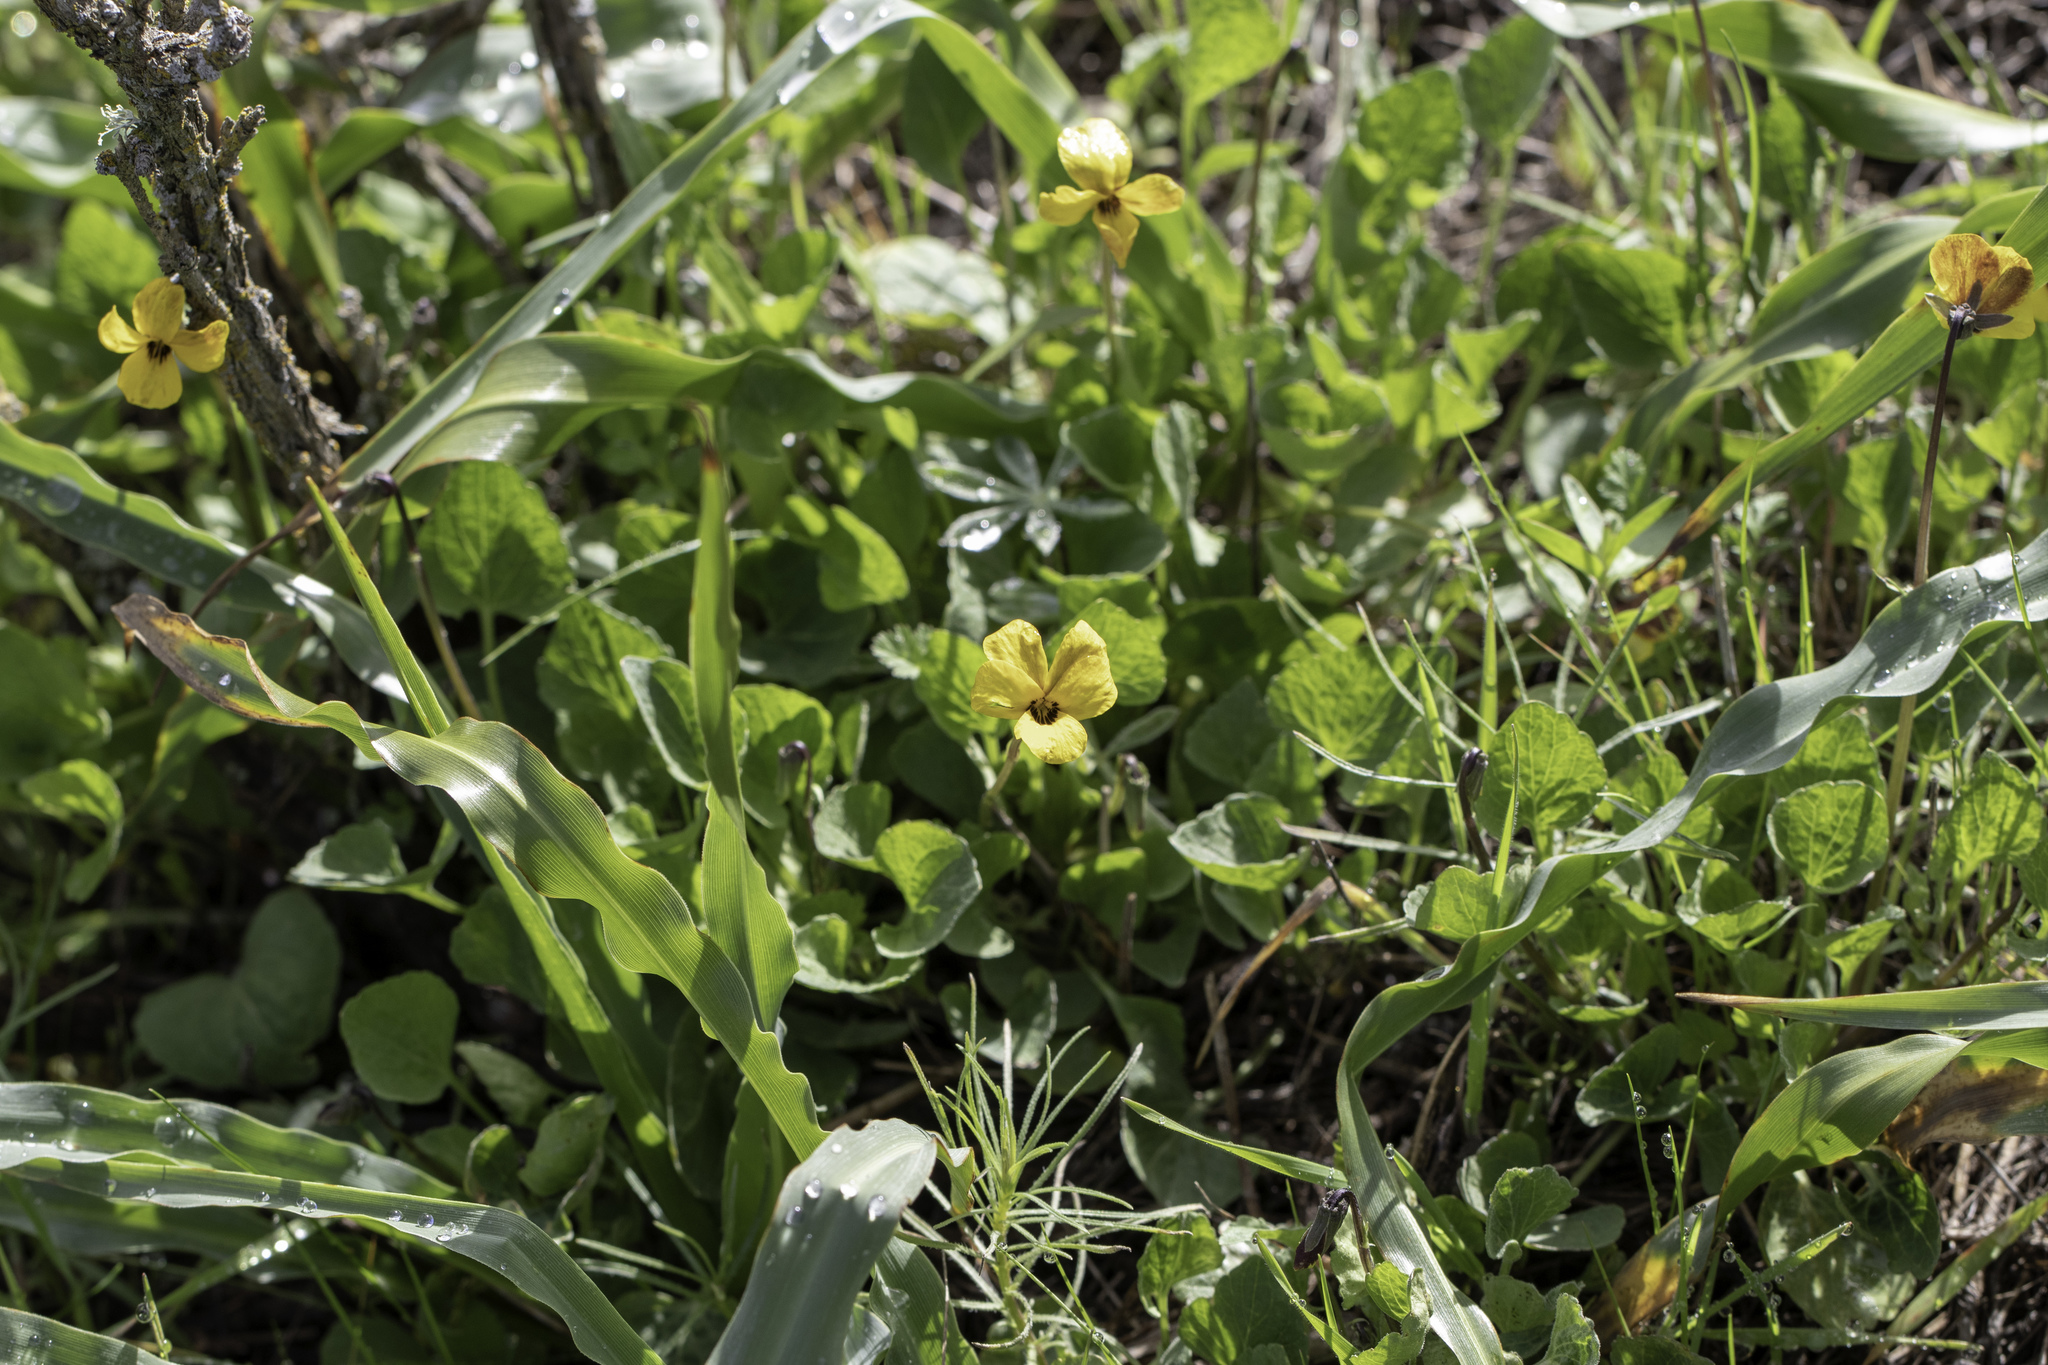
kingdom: Plantae
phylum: Tracheophyta
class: Magnoliopsida
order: Malpighiales
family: Violaceae
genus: Viola
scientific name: Viola pedunculata
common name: California golden violet
